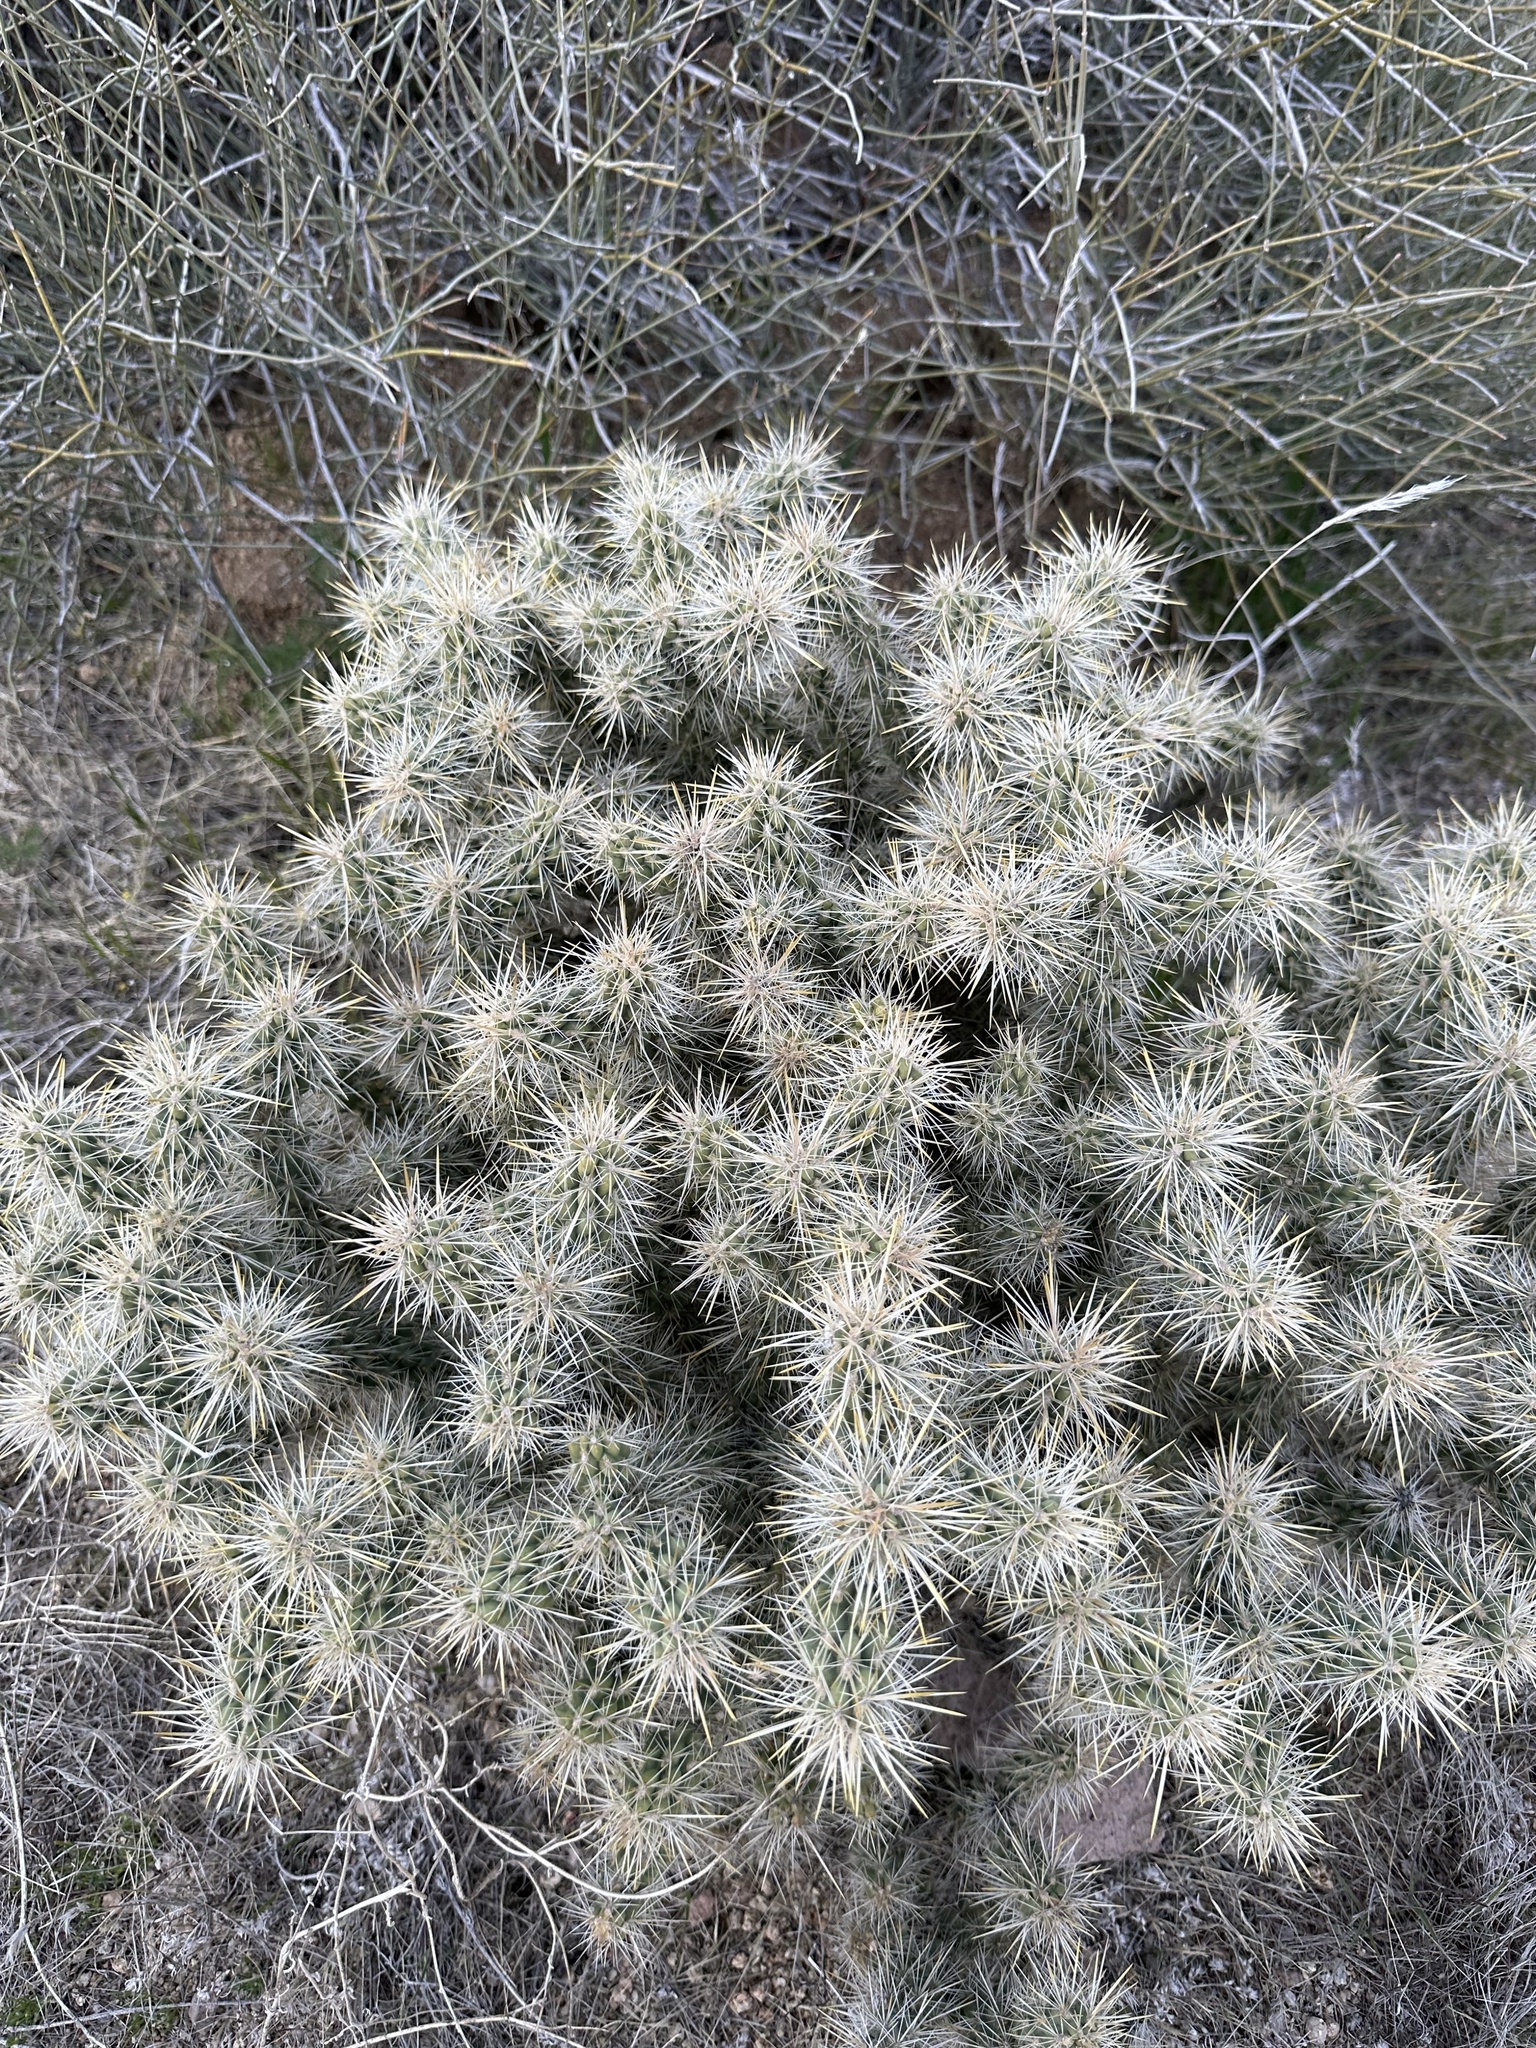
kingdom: Plantae
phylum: Tracheophyta
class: Magnoliopsida
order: Caryophyllales
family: Cactaceae
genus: Cylindropuntia
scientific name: Cylindropuntia echinocarpa
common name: Ground cholla
